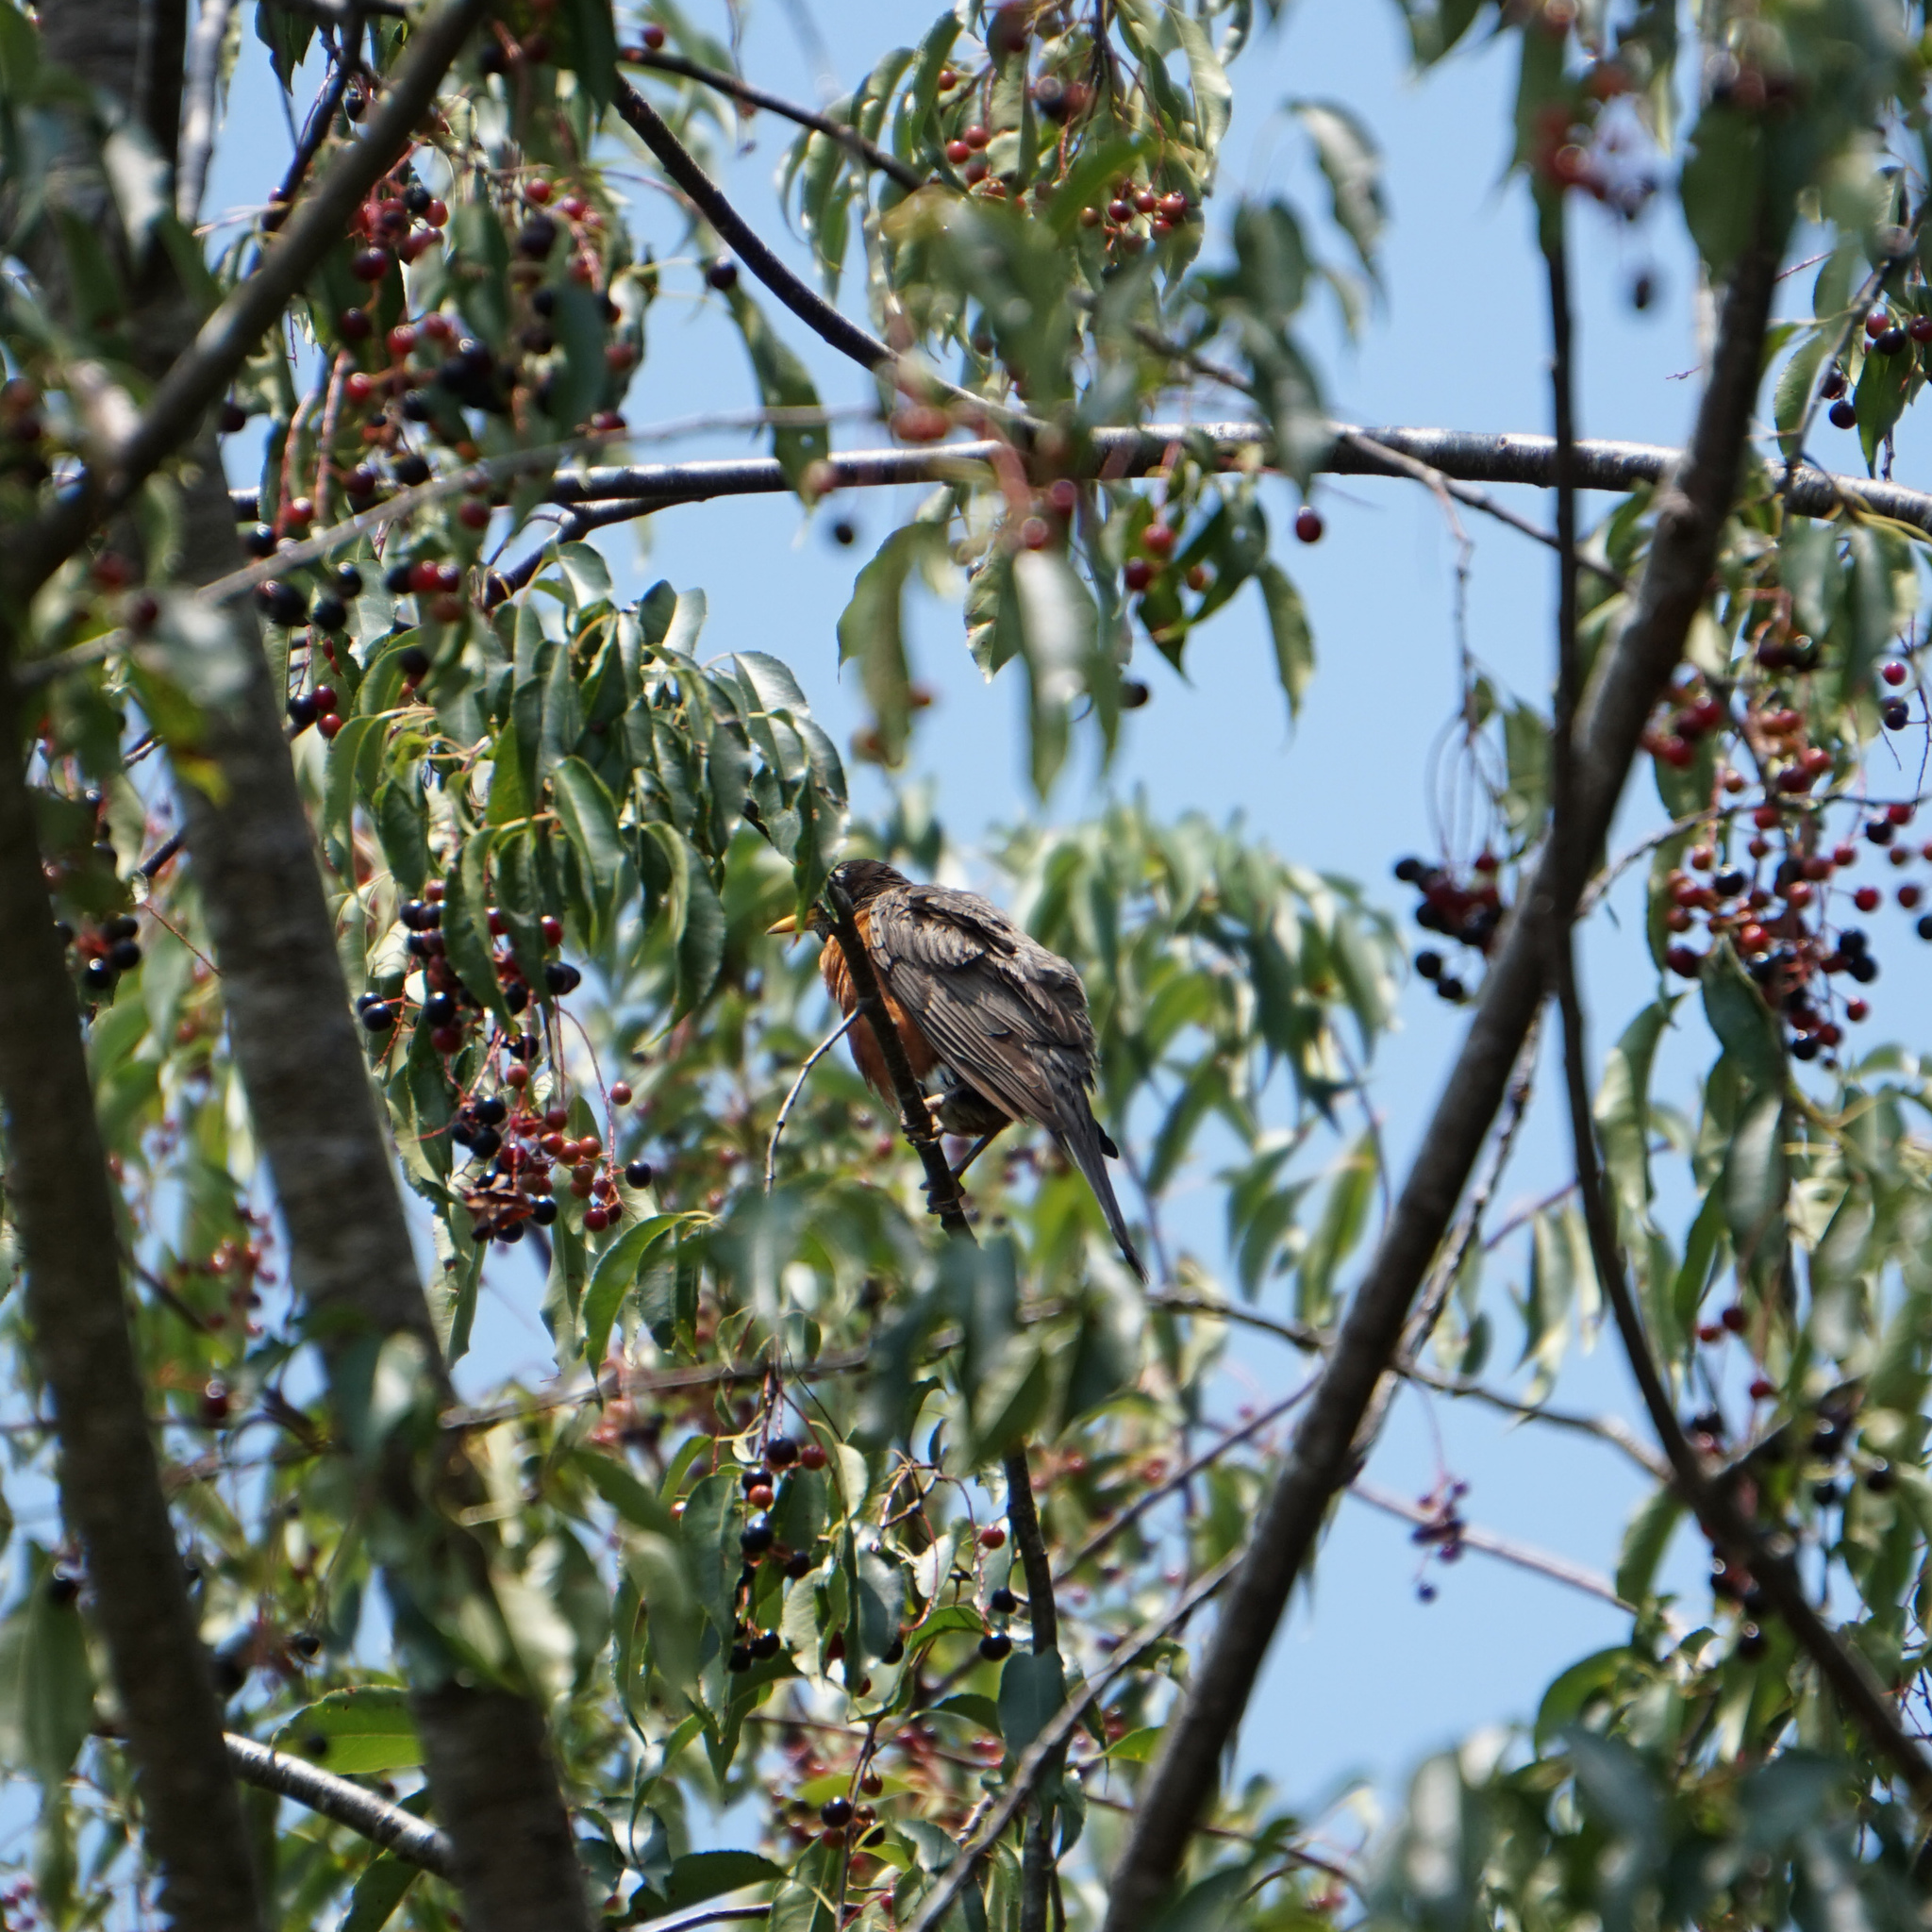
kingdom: Animalia
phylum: Chordata
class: Aves
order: Passeriformes
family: Turdidae
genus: Turdus
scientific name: Turdus migratorius
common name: American robin
